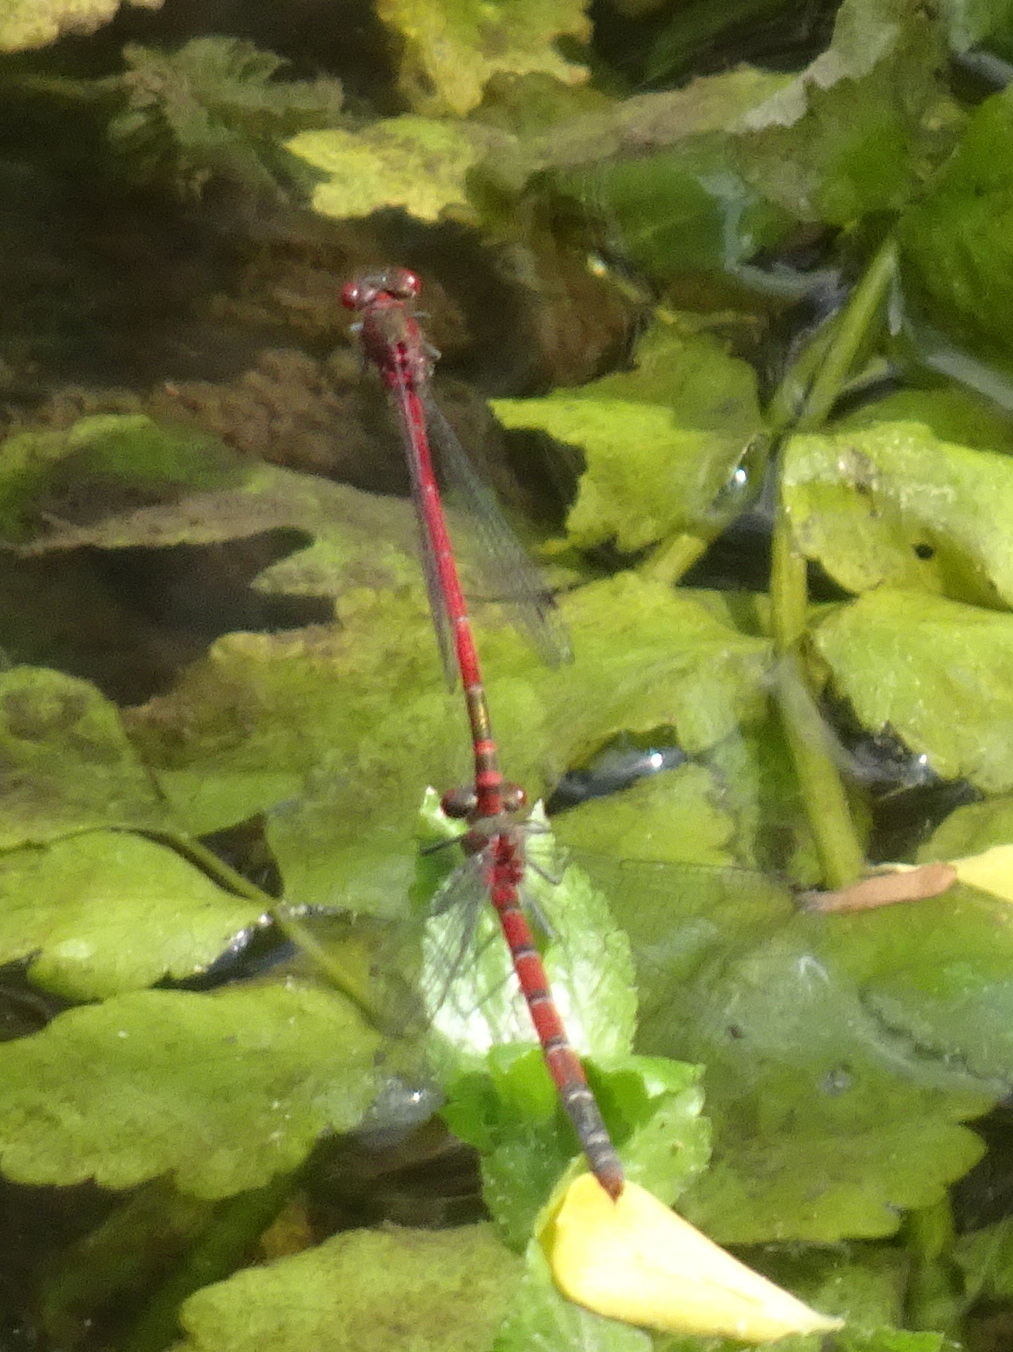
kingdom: Animalia
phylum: Arthropoda
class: Insecta
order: Odonata
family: Coenagrionidae
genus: Pyrrhosoma
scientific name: Pyrrhosoma nymphula
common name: Large red damsel
